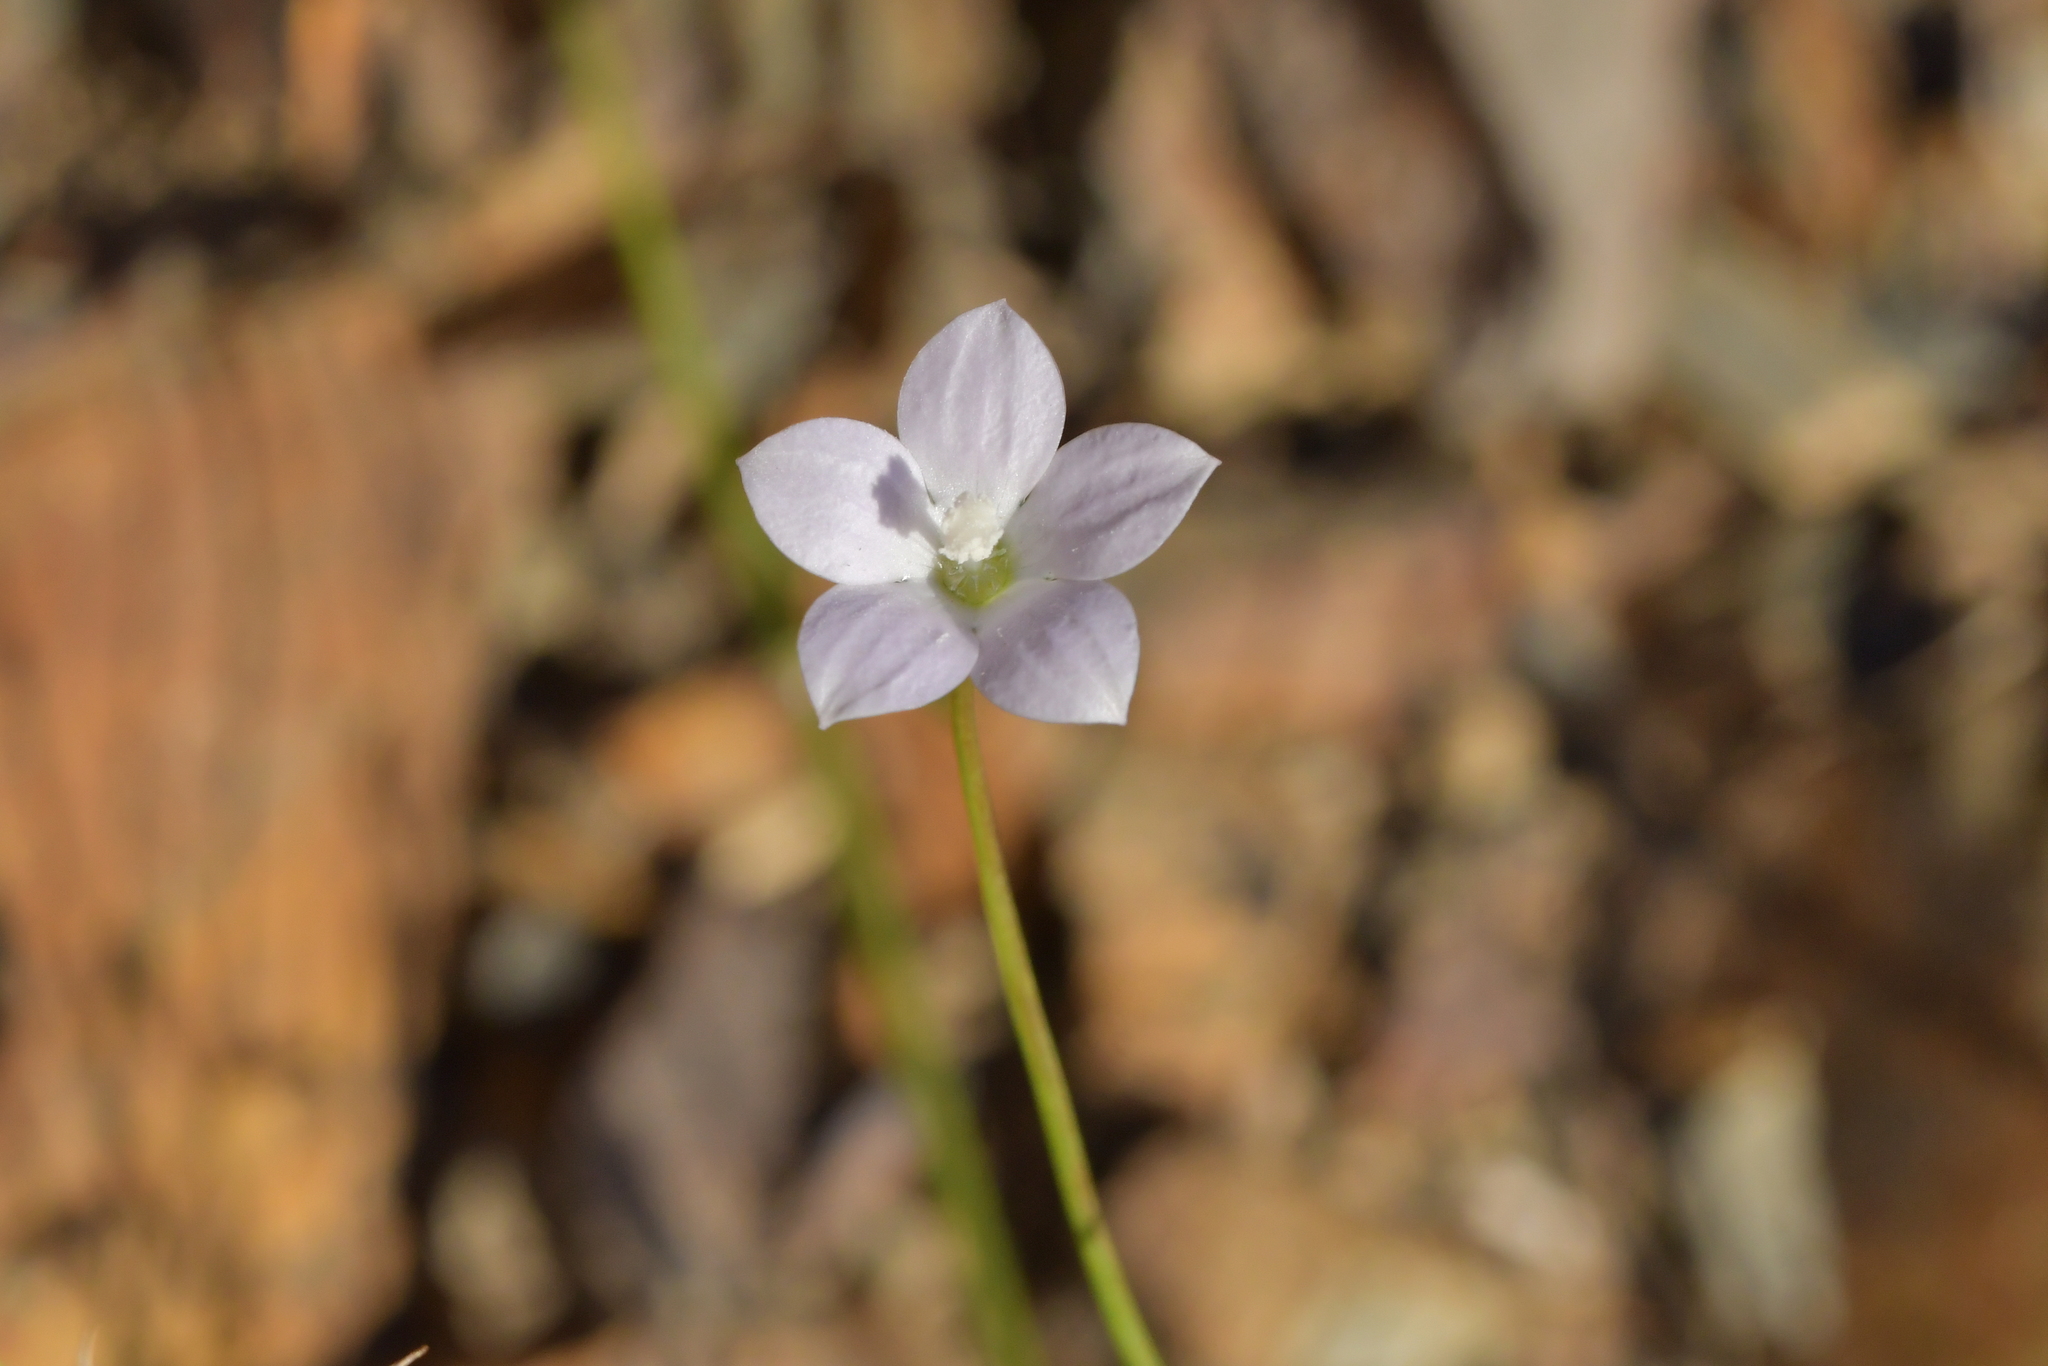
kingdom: Plantae
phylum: Tracheophyta
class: Magnoliopsida
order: Asterales
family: Campanulaceae
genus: Wahlenbergia
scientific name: Wahlenbergia ramosa
